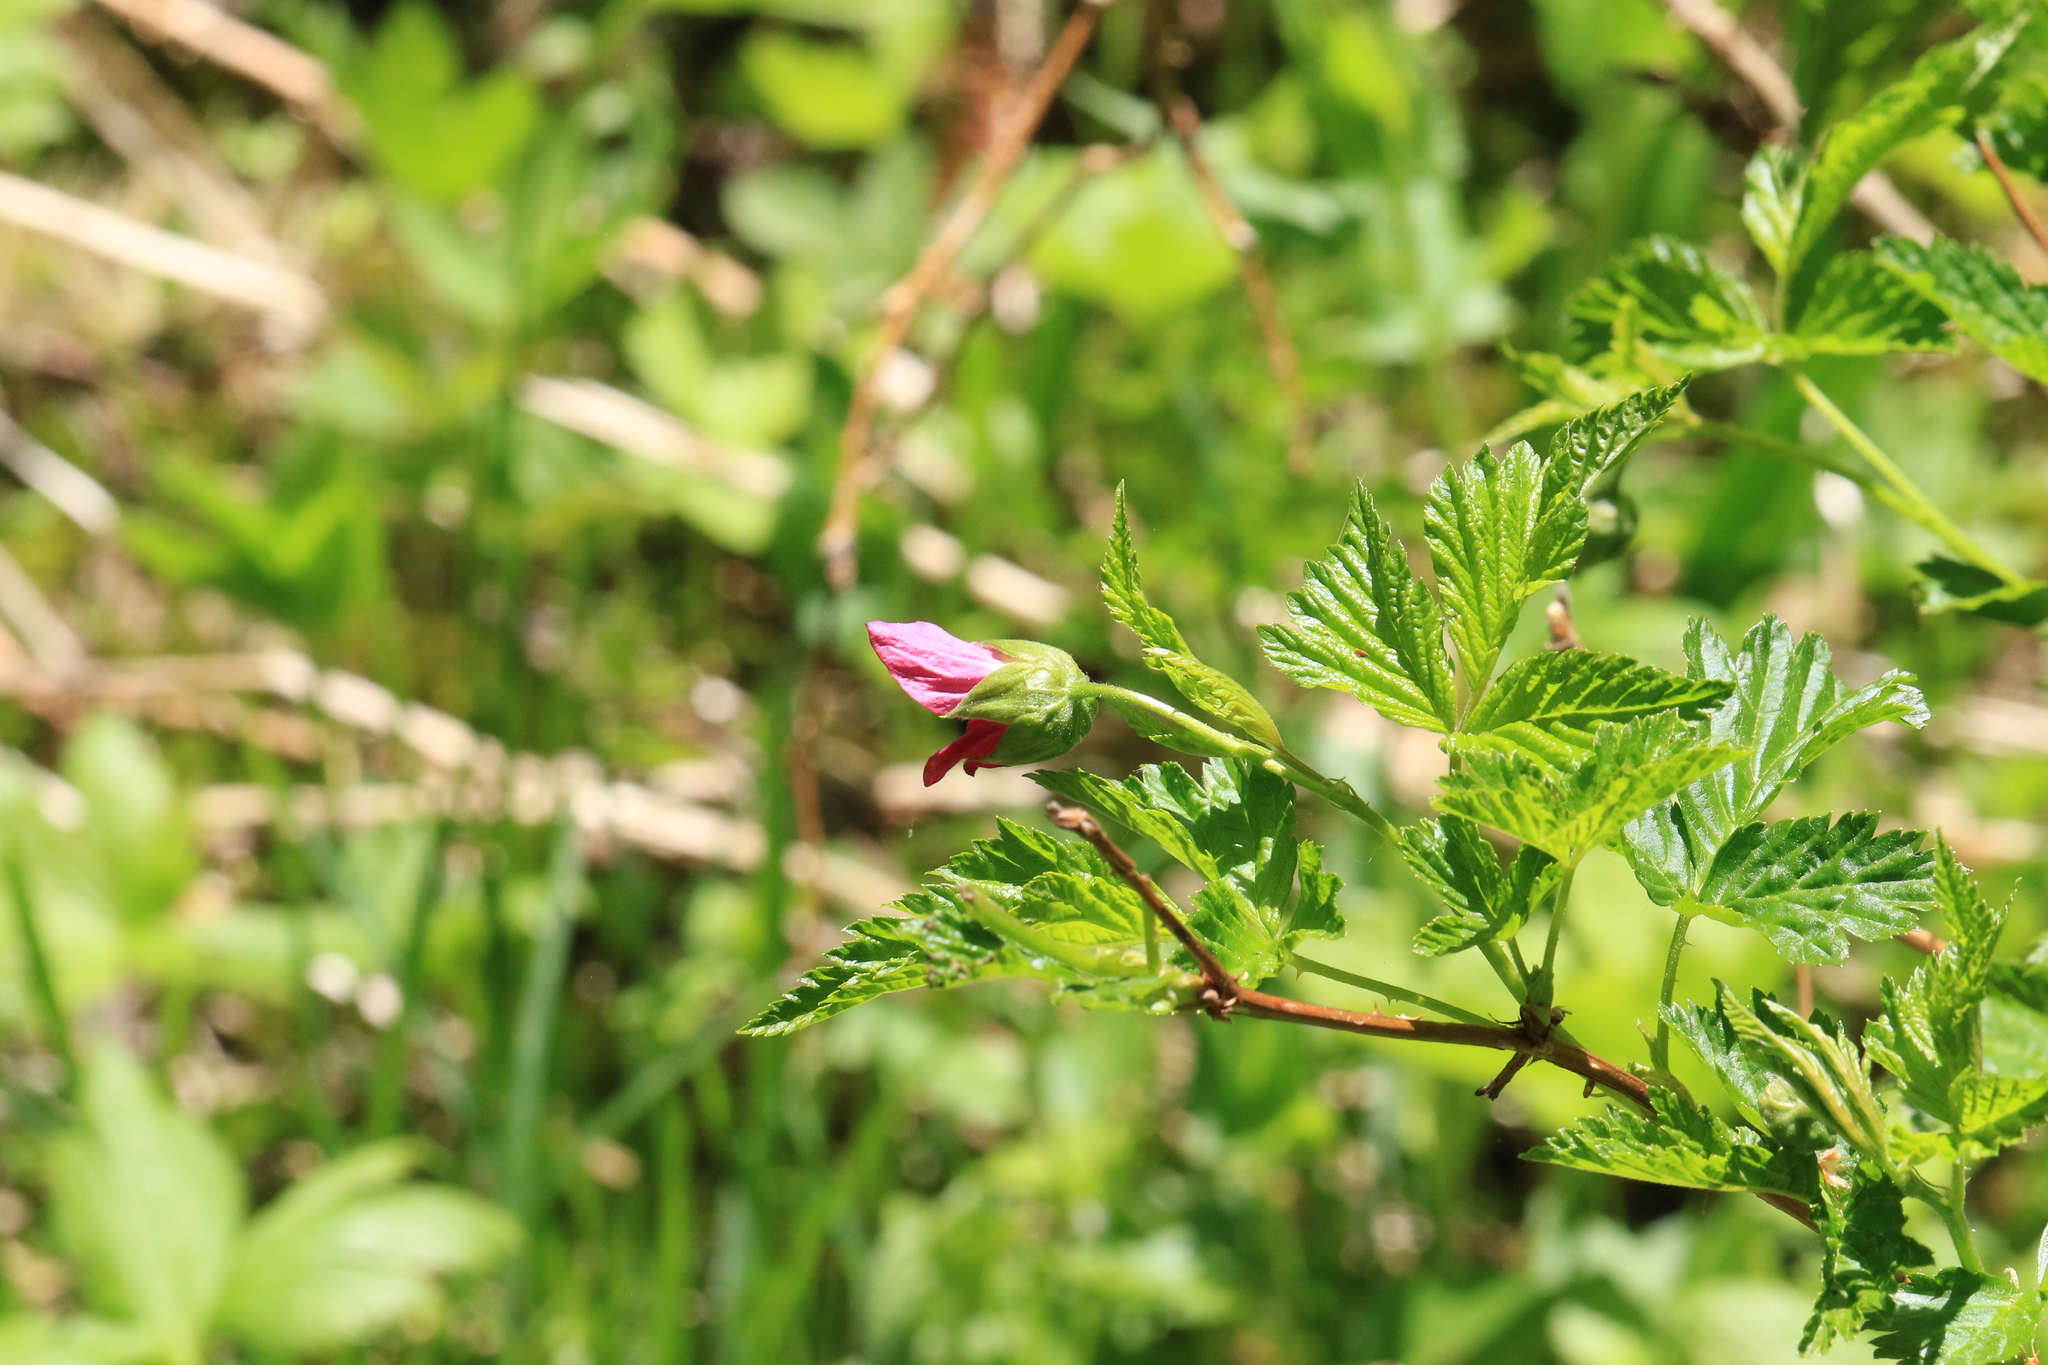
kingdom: Plantae
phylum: Tracheophyta
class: Magnoliopsida
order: Rosales
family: Rosaceae
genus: Rubus
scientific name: Rubus spectabilis
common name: Salmonberry
